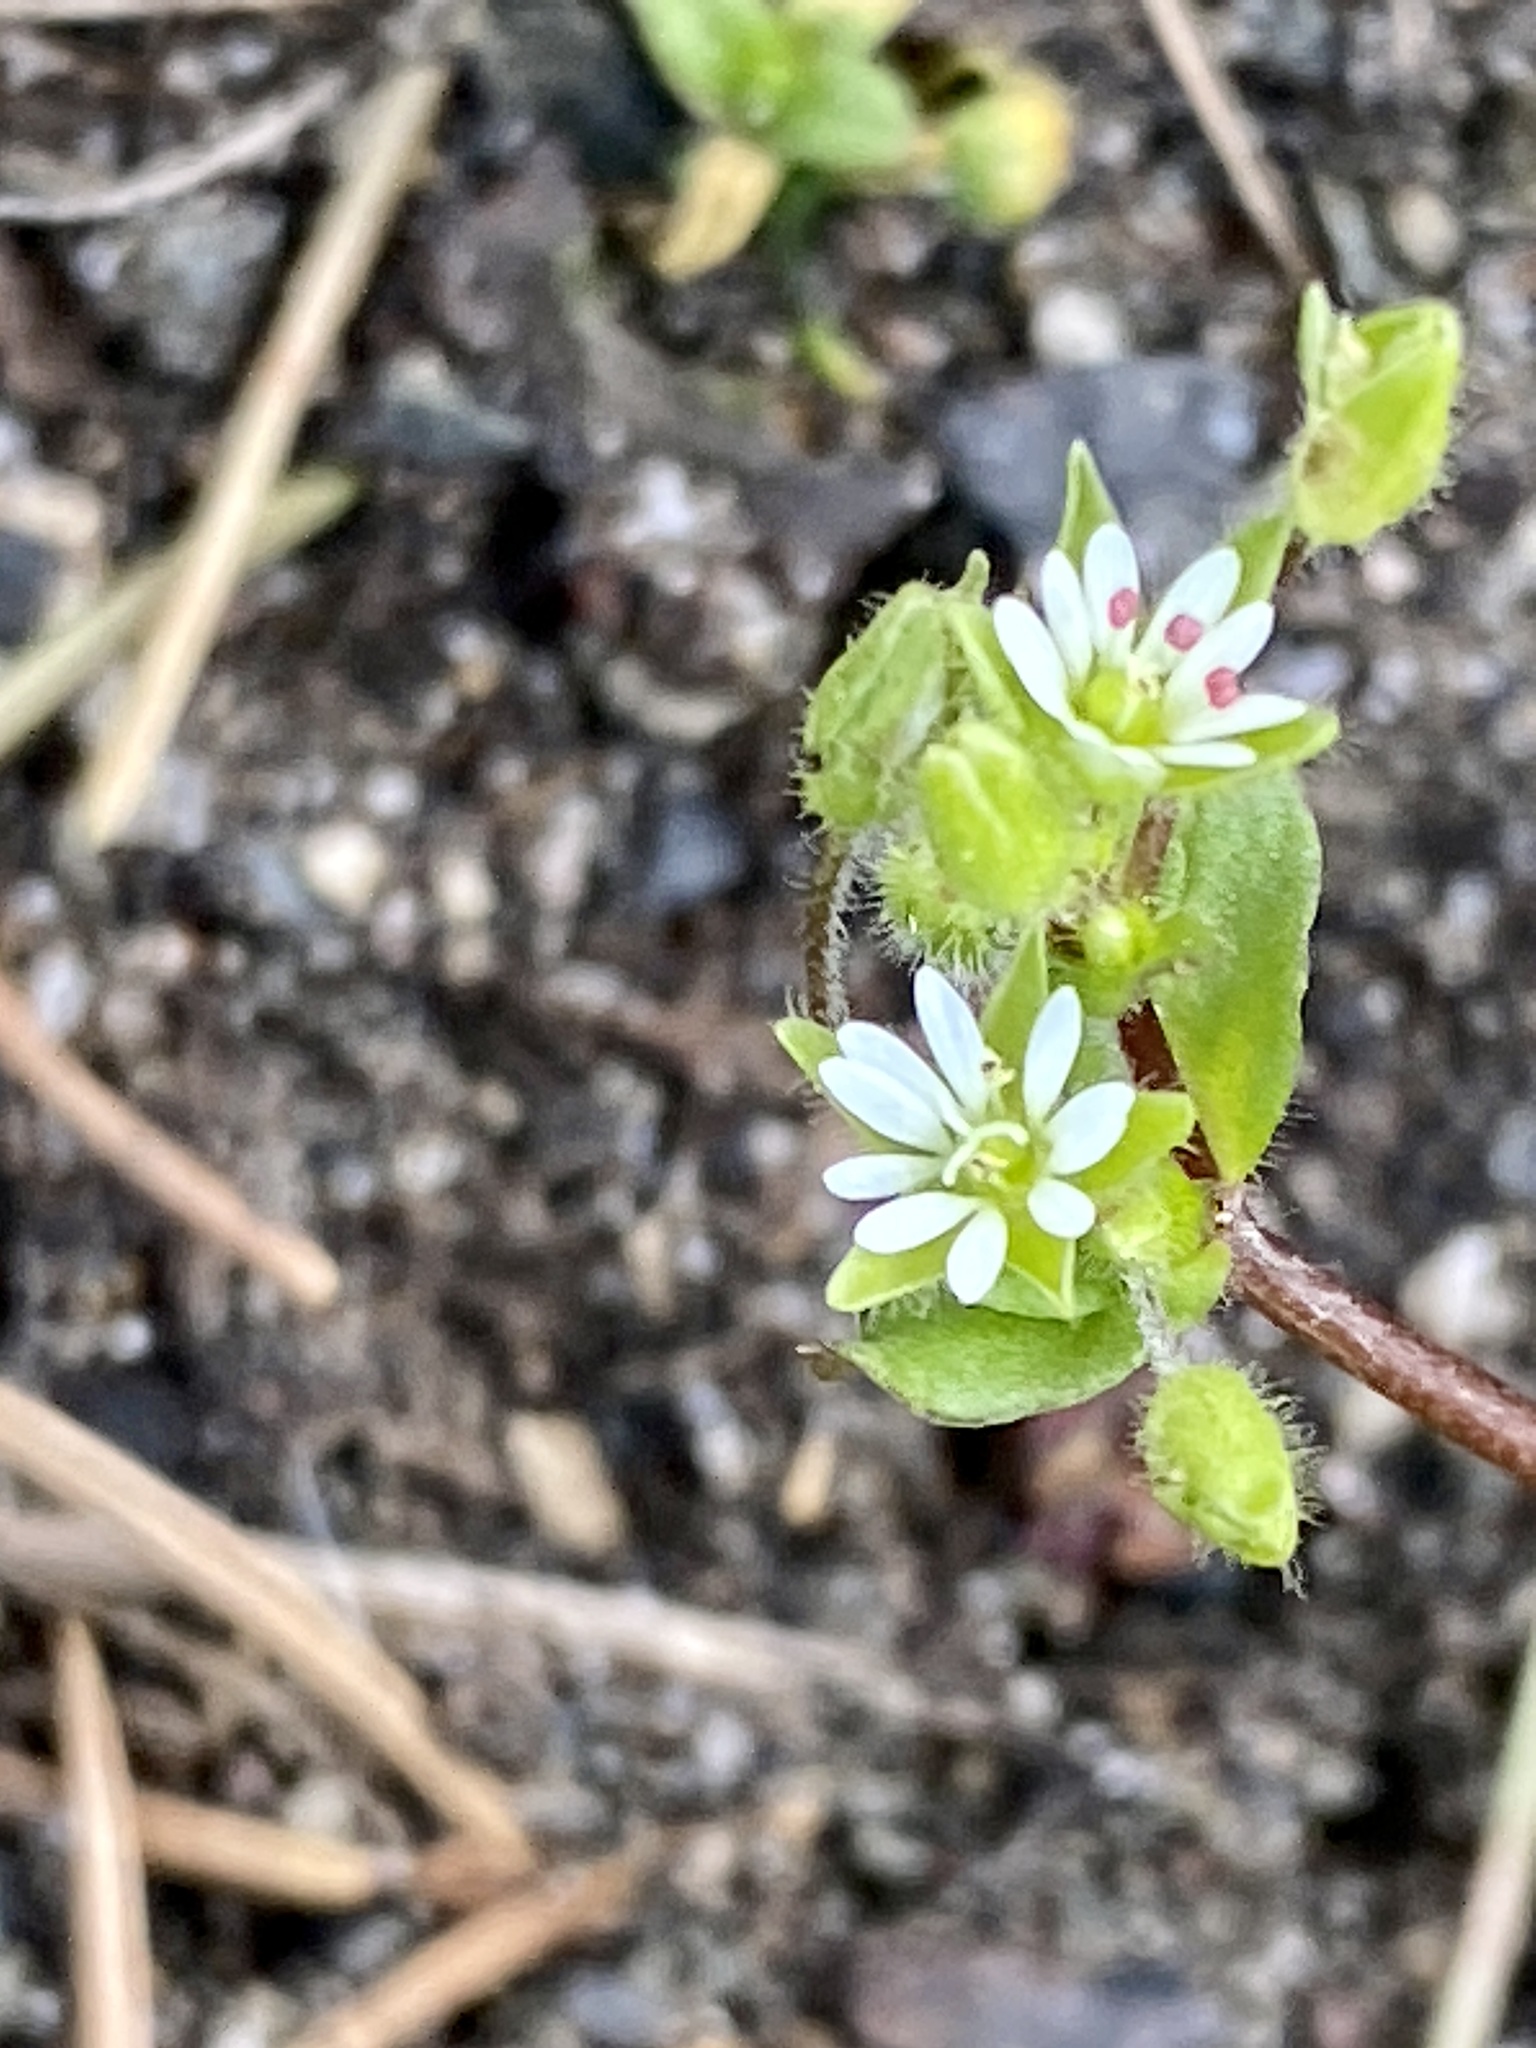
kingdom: Plantae
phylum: Tracheophyta
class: Magnoliopsida
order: Caryophyllales
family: Caryophyllaceae
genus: Stellaria
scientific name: Stellaria media
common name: Common chickweed
